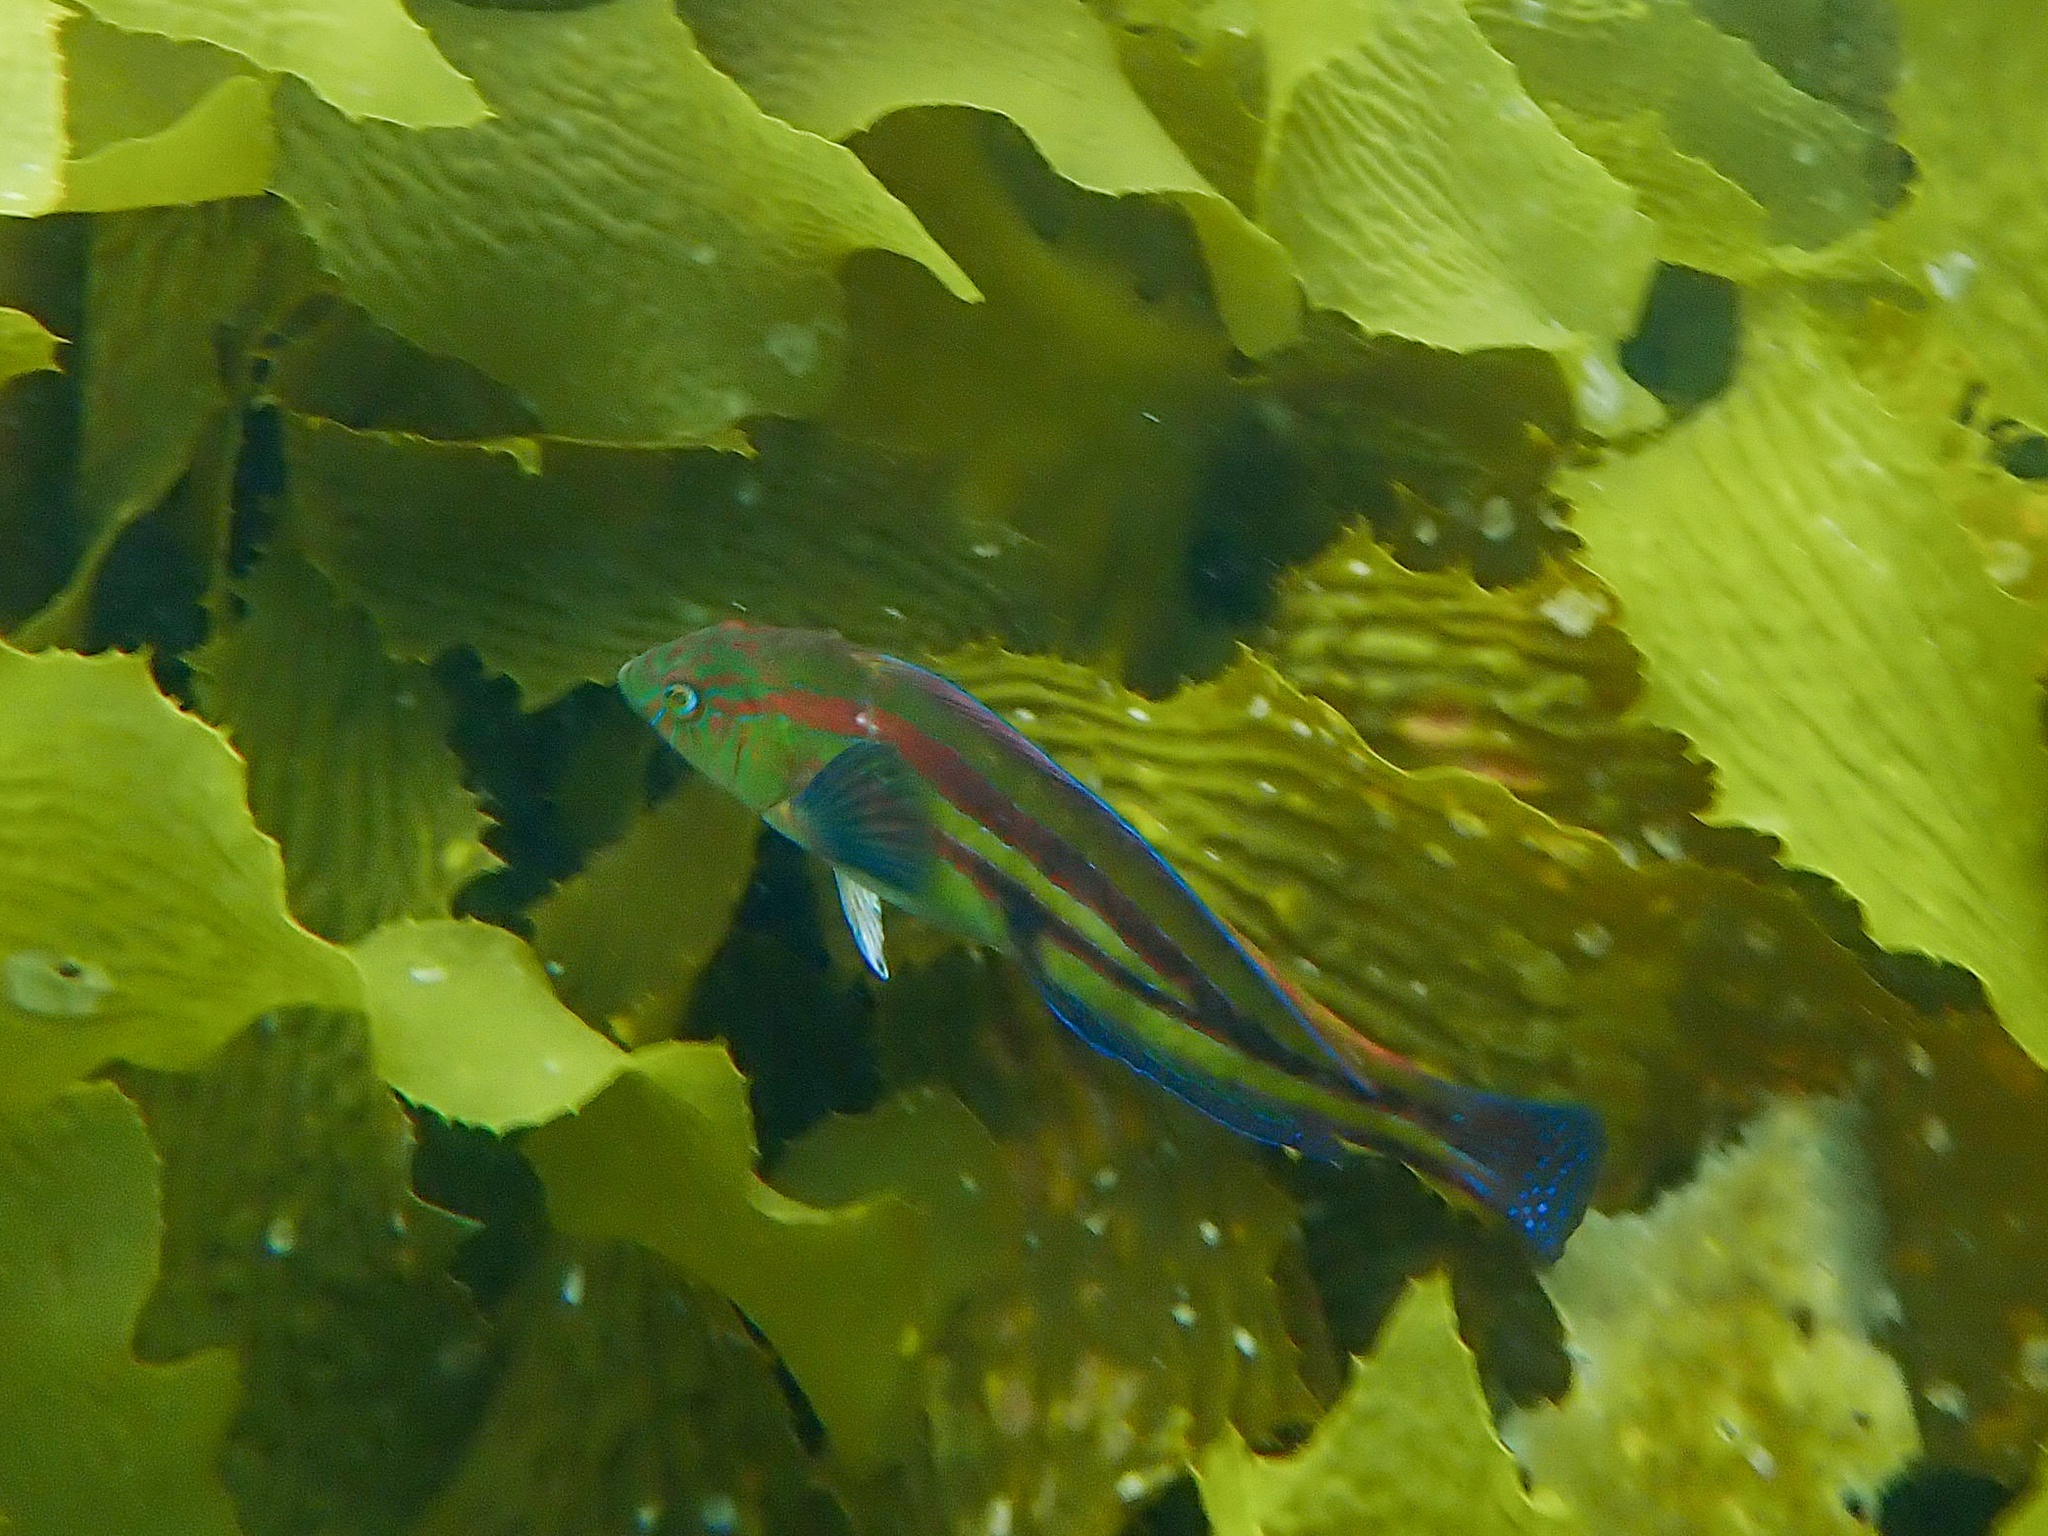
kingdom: Animalia
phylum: Chordata
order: Perciformes
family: Labridae
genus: Pictilabrus
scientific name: Pictilabrus laticlavius
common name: Patrician wrasse
